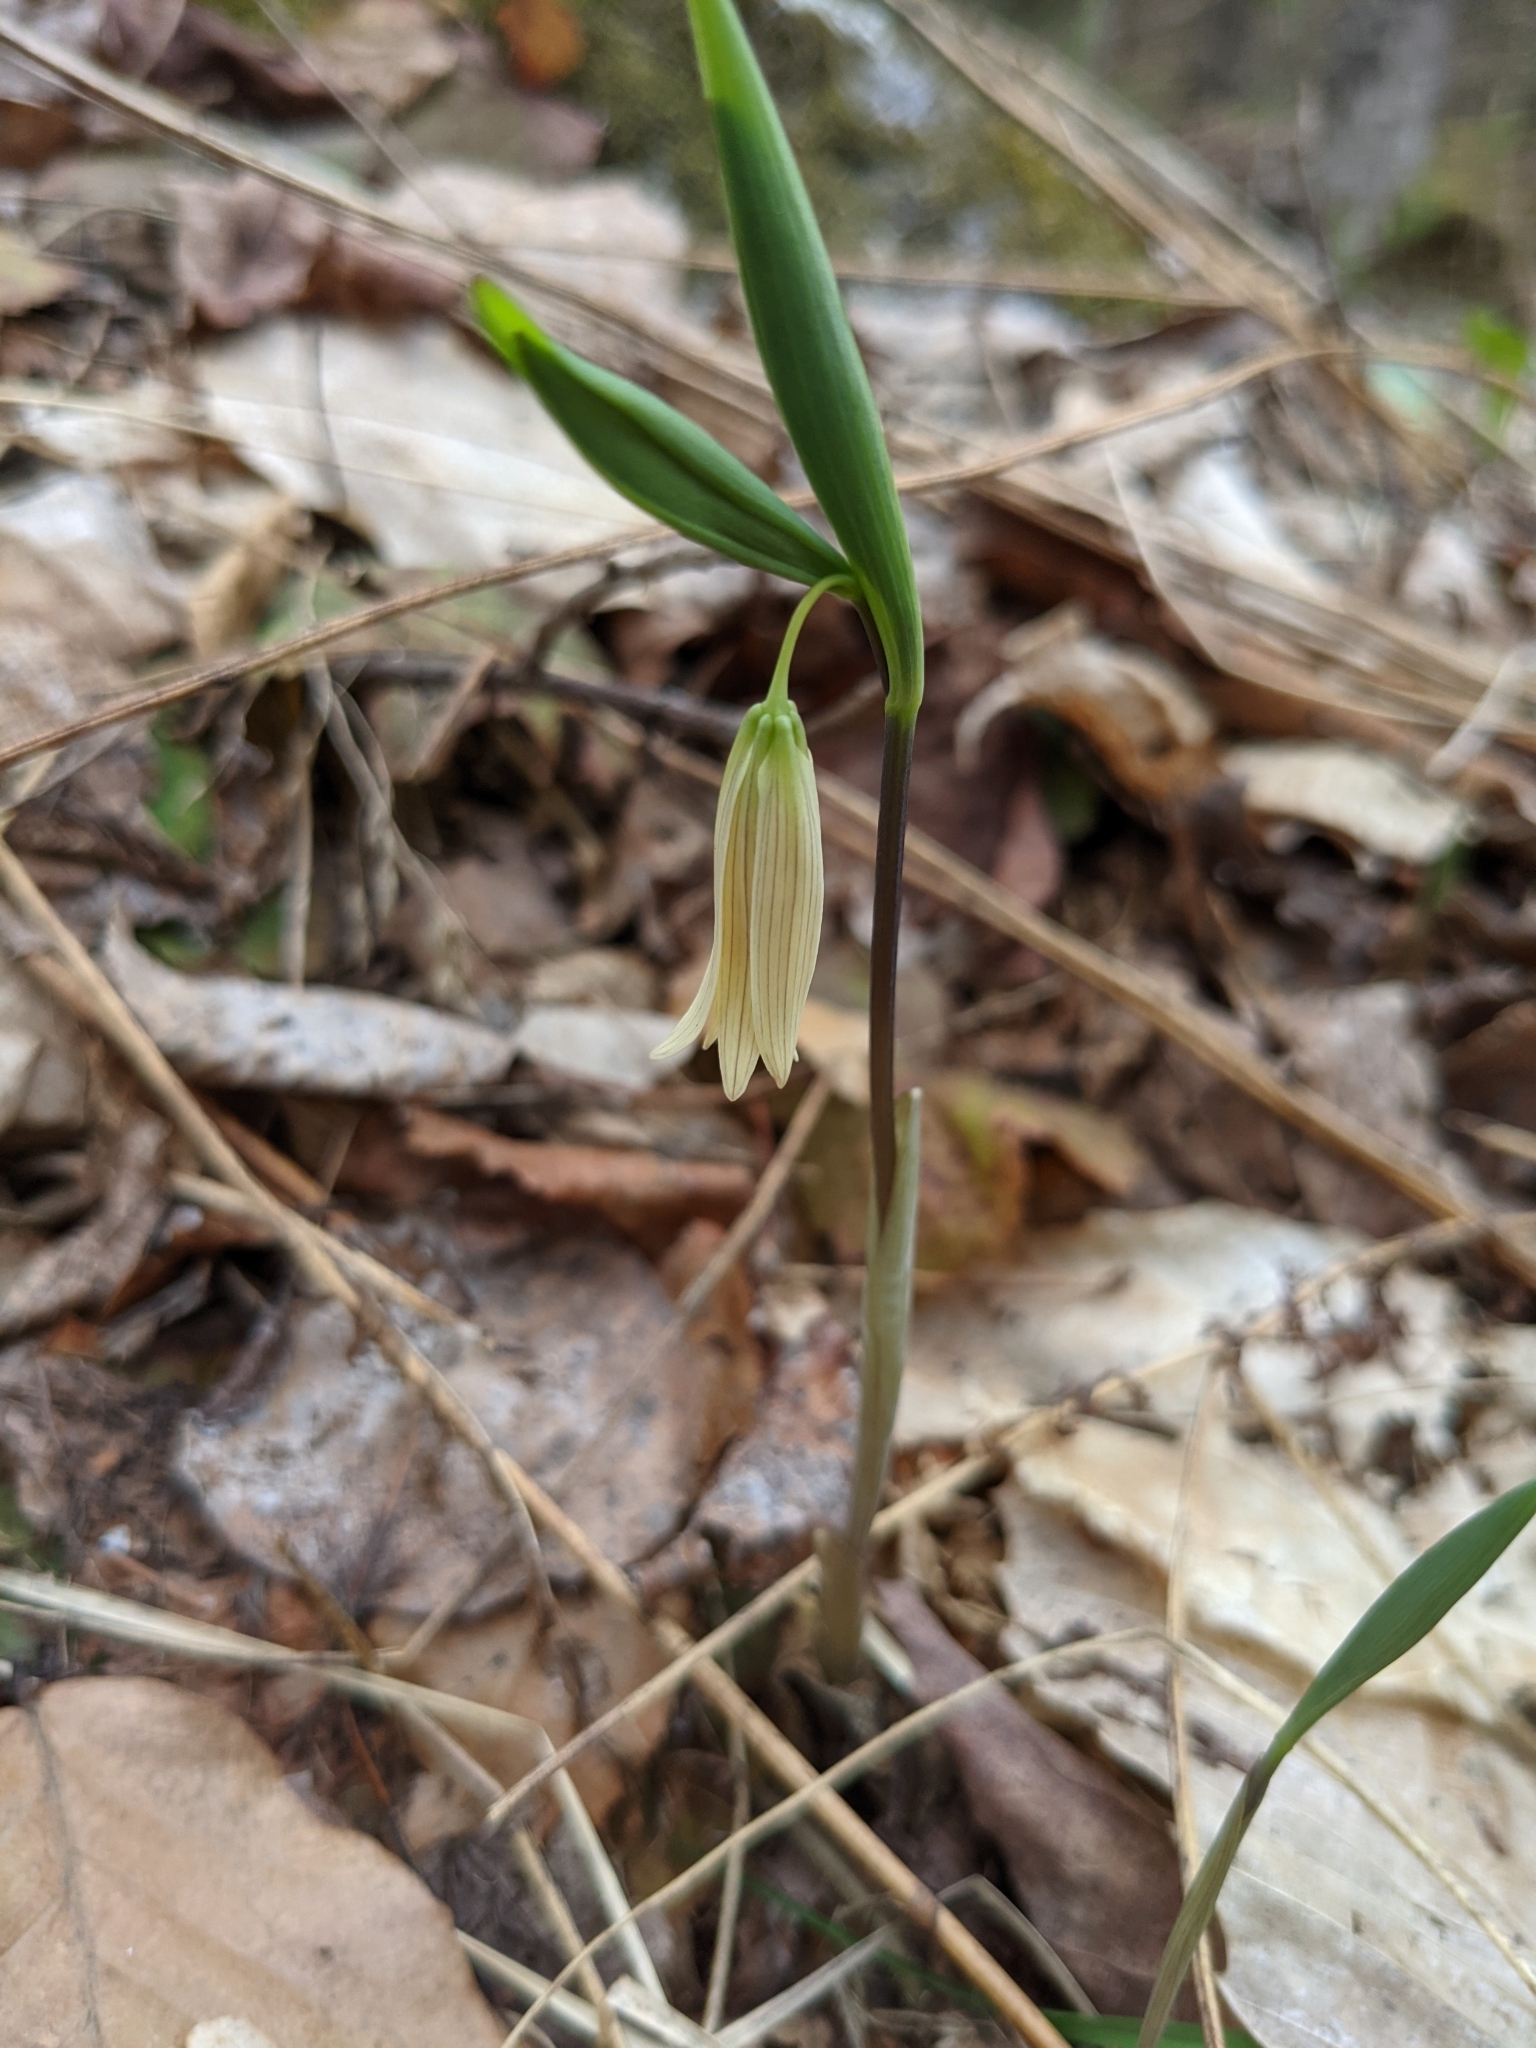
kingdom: Plantae
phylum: Tracheophyta
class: Liliopsida
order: Liliales
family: Colchicaceae
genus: Uvularia
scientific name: Uvularia sessilifolia
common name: Straw-lily
